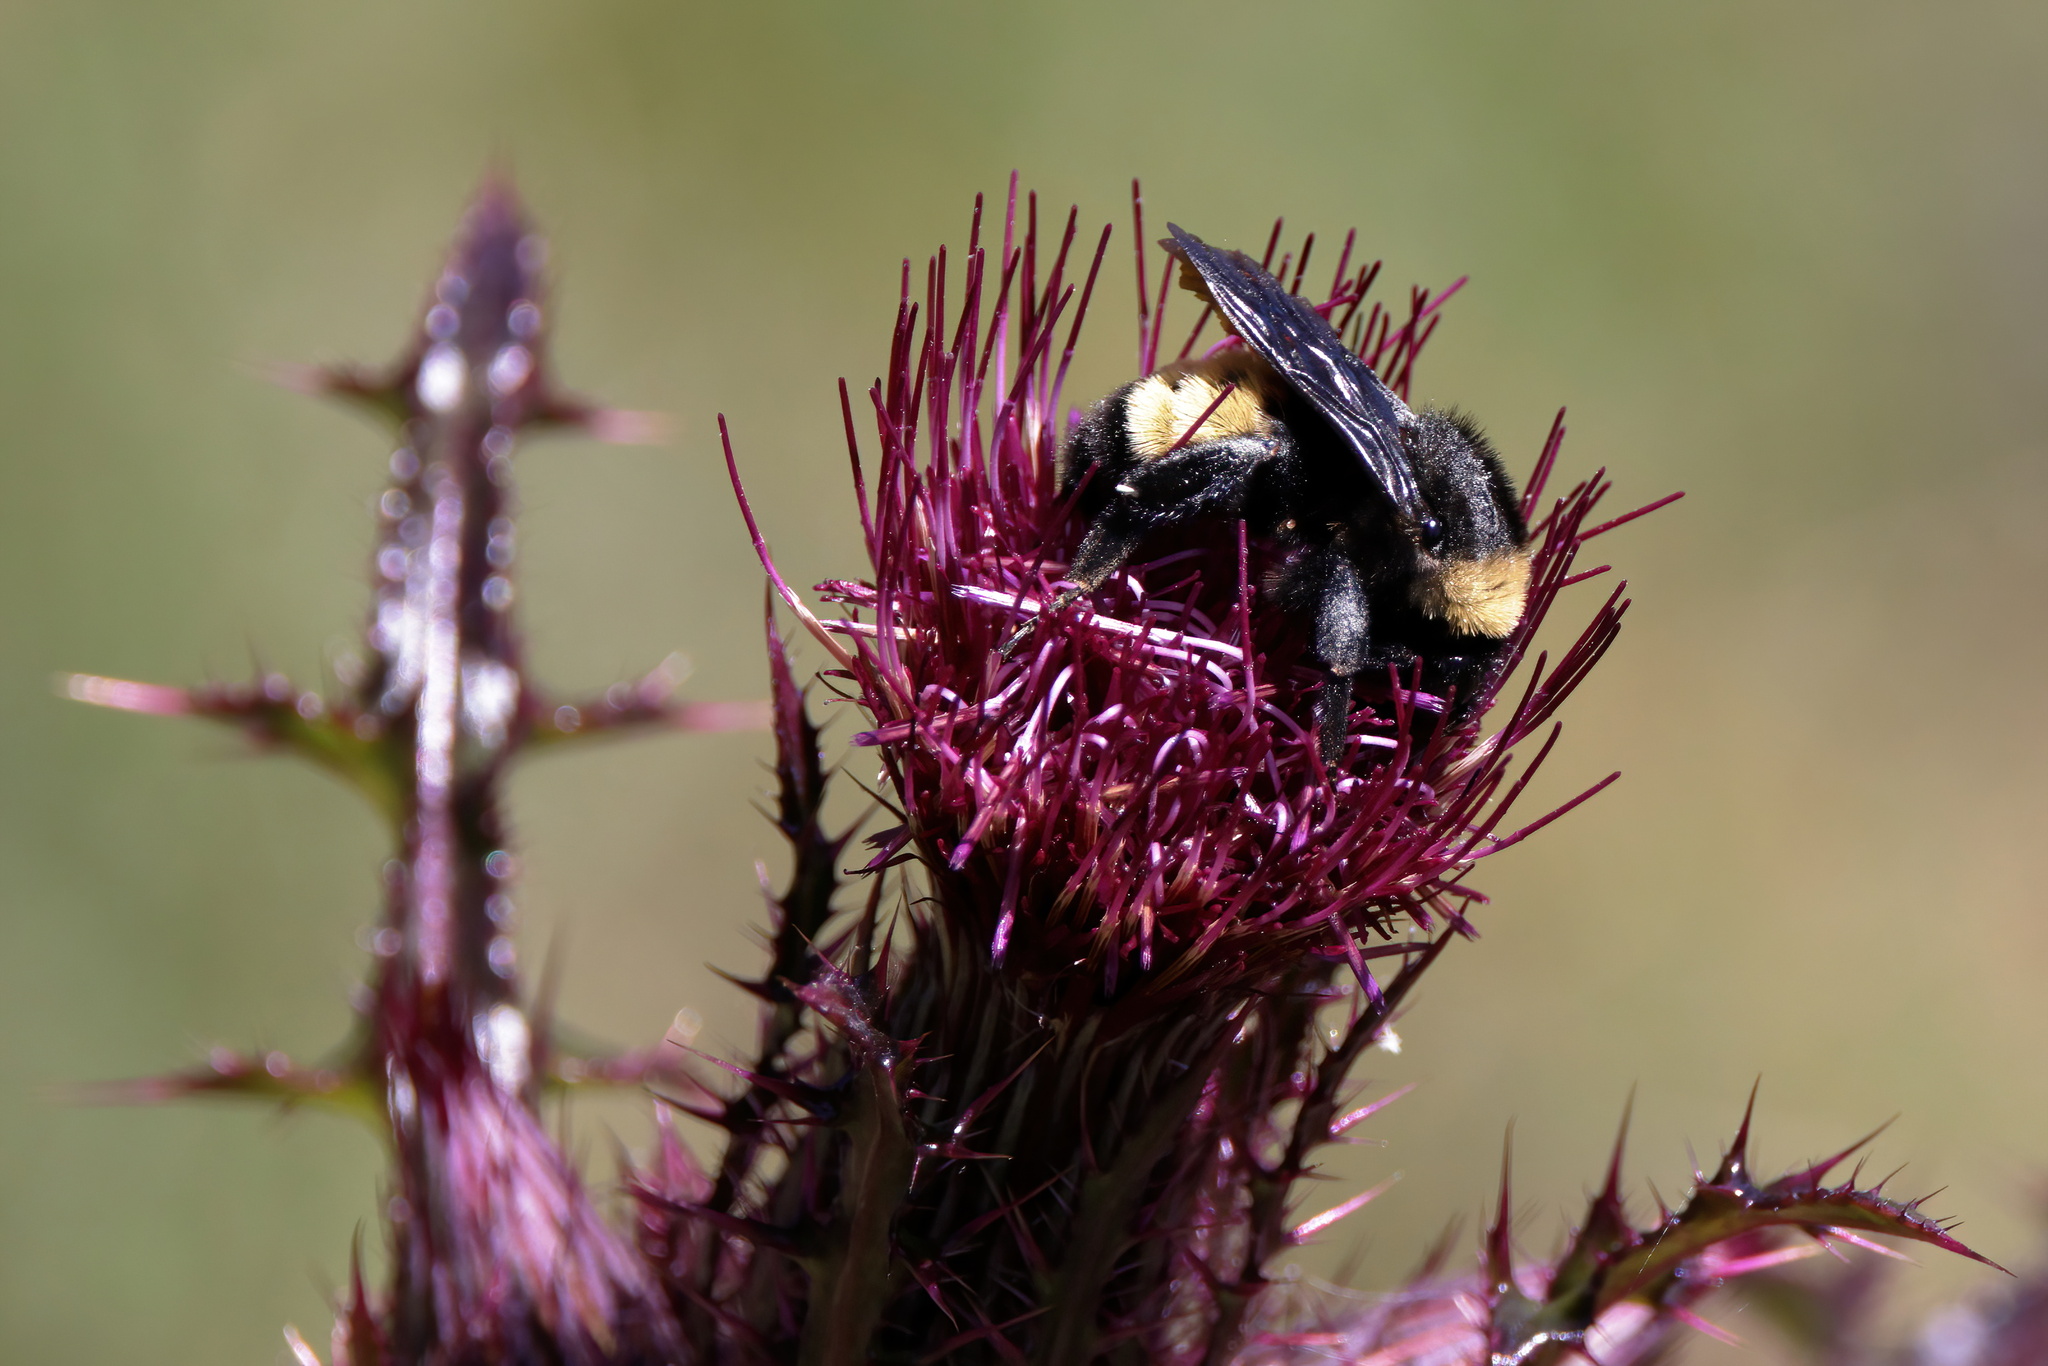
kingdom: Animalia
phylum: Arthropoda
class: Insecta
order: Hymenoptera
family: Apidae
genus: Bombus
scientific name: Bombus pensylvanicus
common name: Bumble bee
